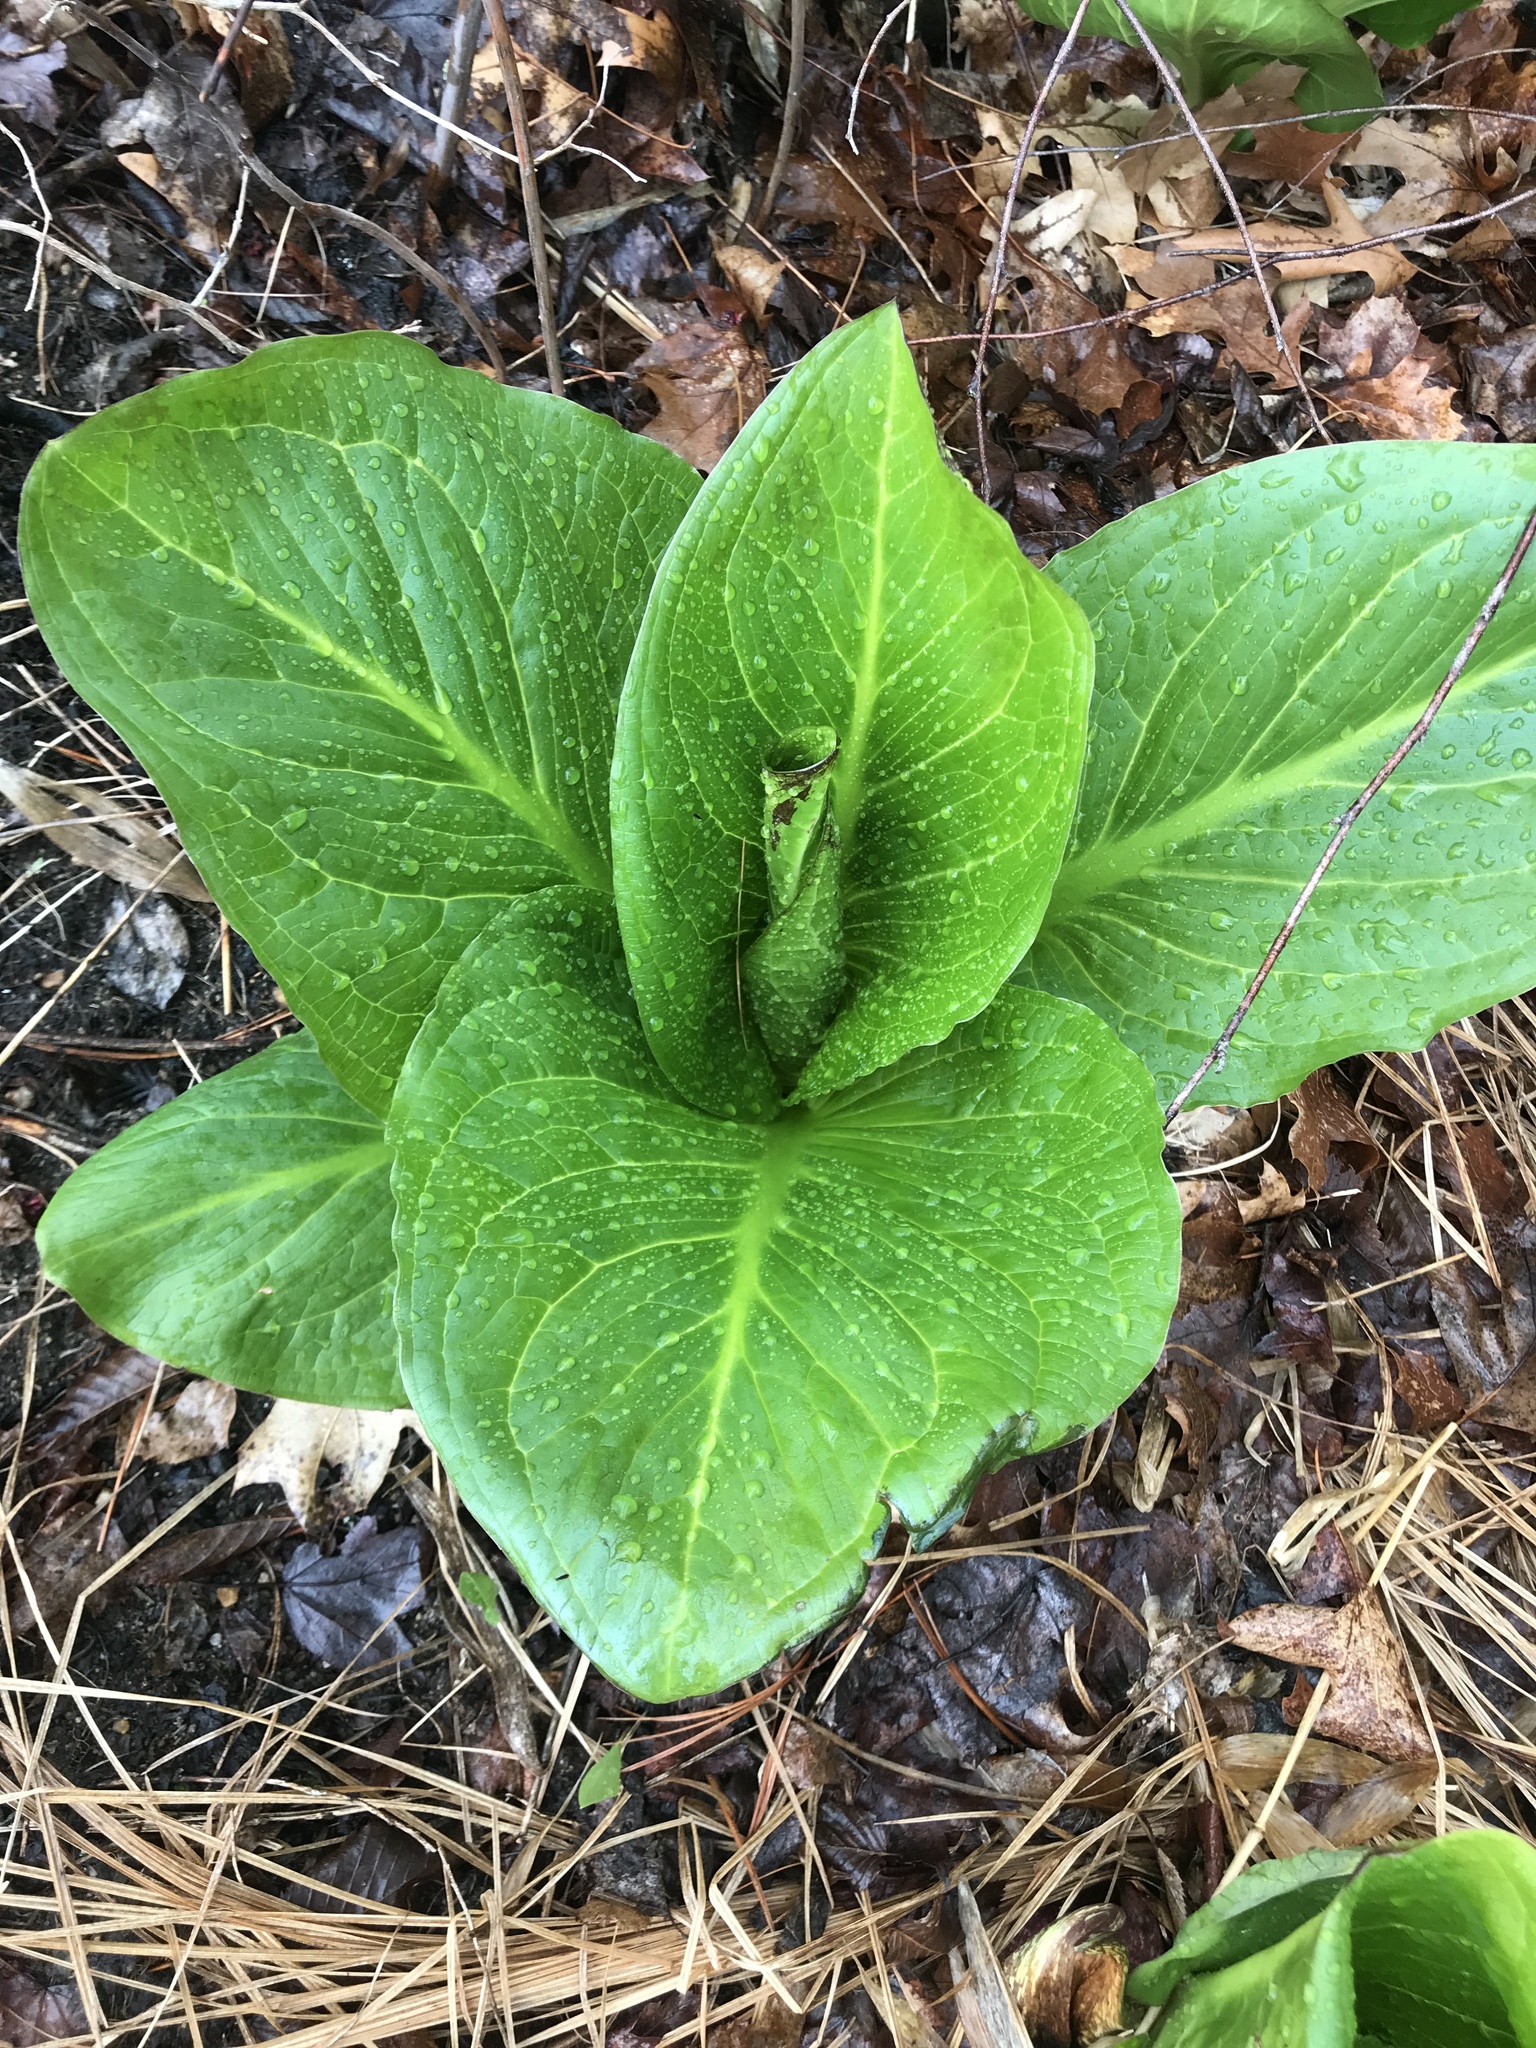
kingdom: Plantae
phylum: Tracheophyta
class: Liliopsida
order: Alismatales
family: Araceae
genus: Symplocarpus
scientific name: Symplocarpus foetidus
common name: Eastern skunk cabbage
